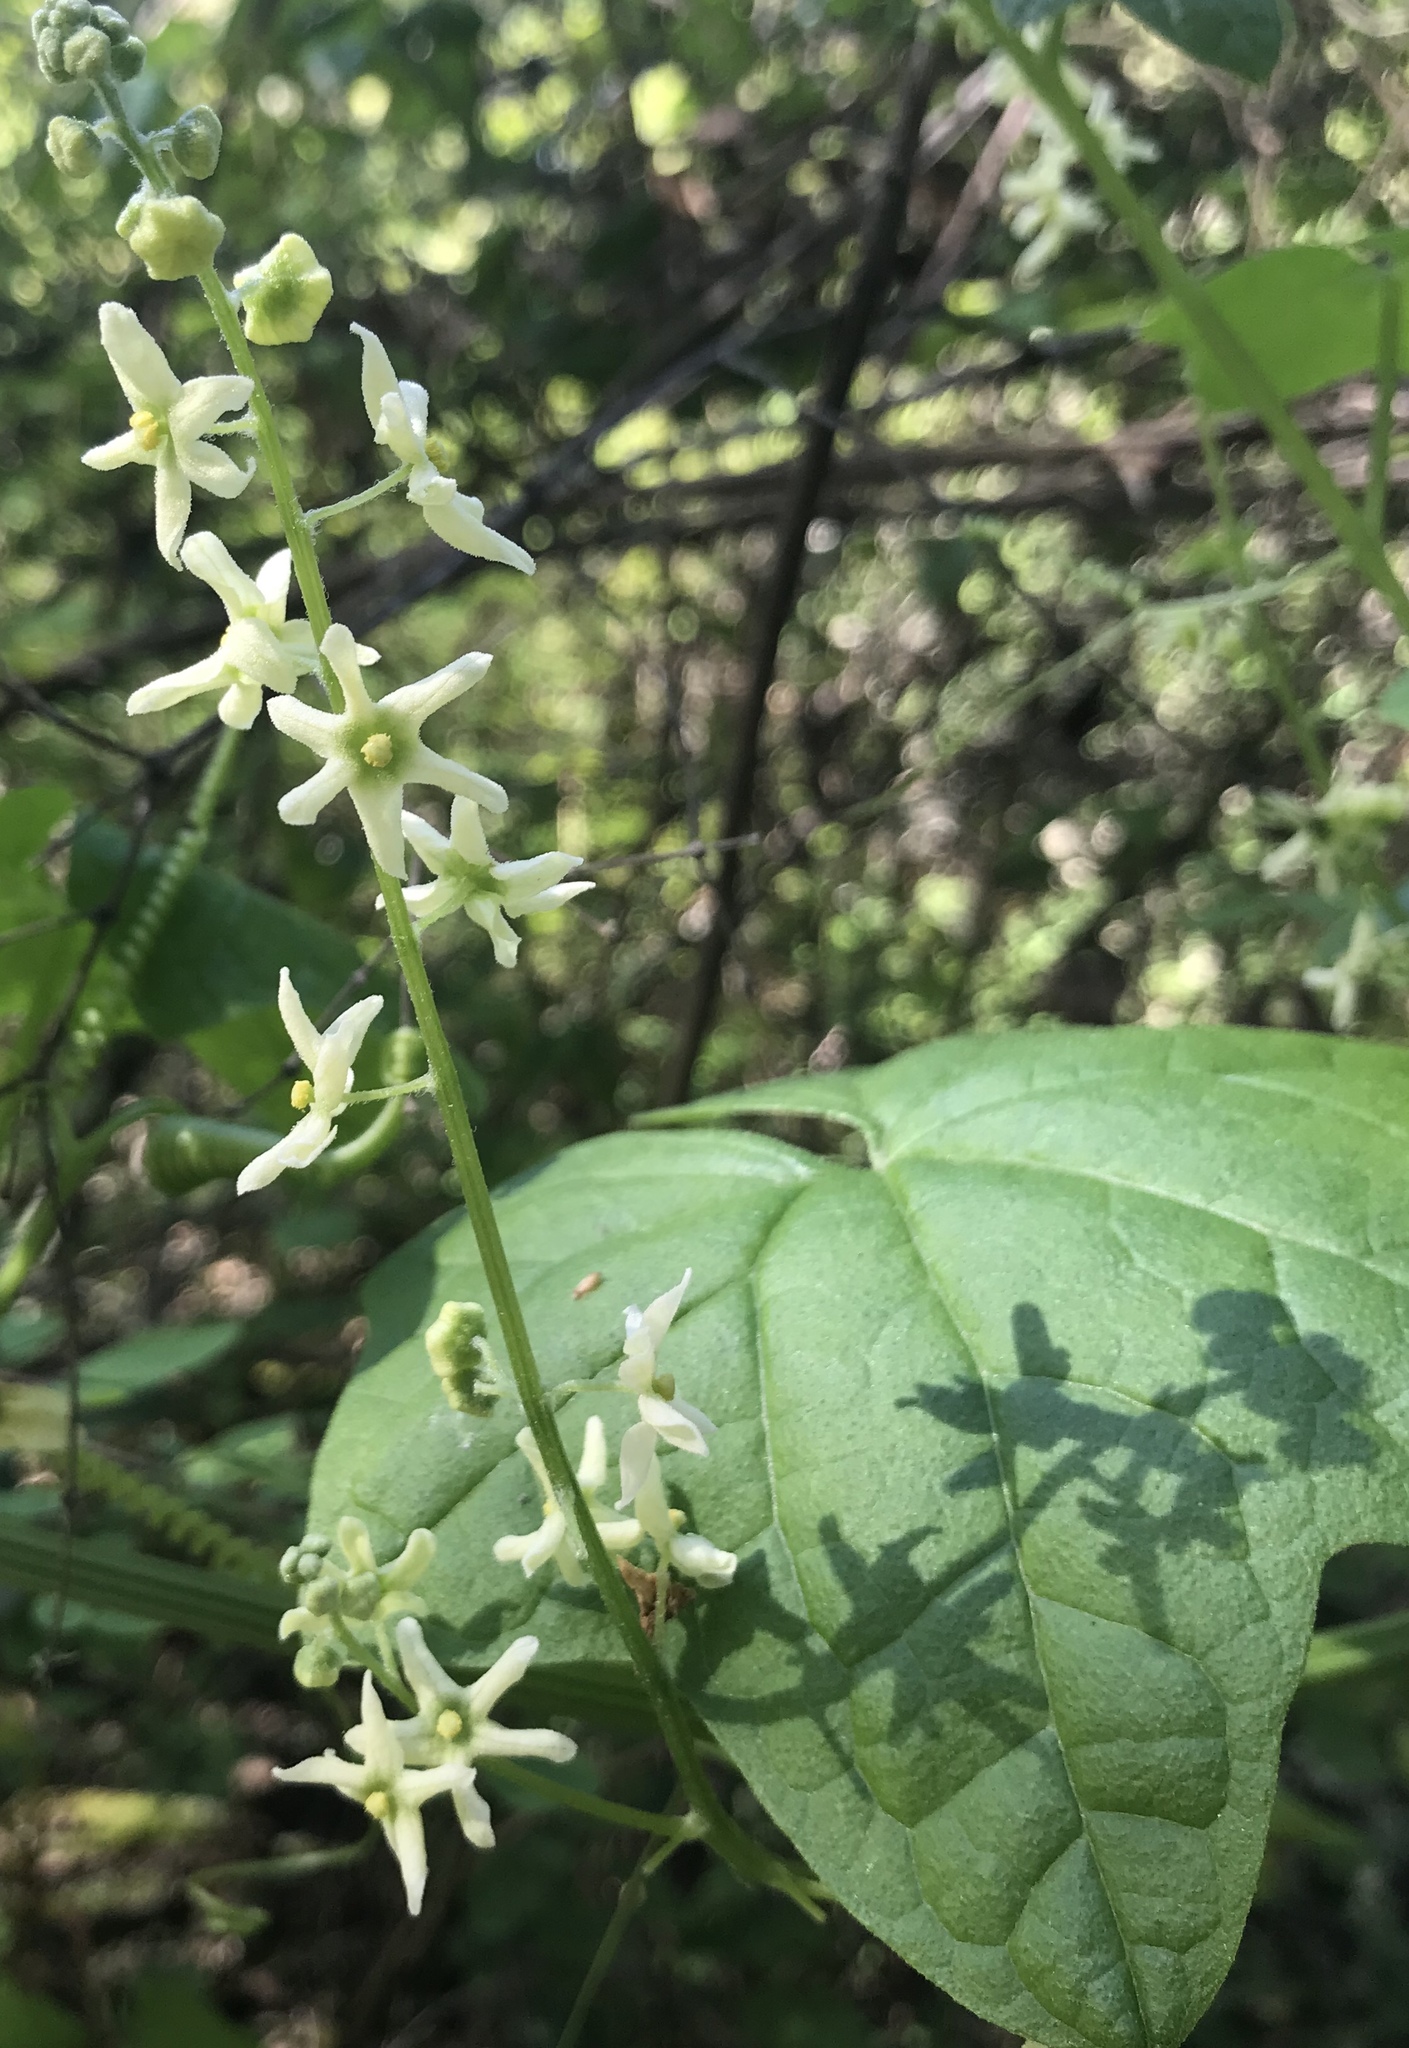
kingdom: Plantae
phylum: Tracheophyta
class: Magnoliopsida
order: Cucurbitales
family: Cucurbitaceae
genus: Marah
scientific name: Marah fabacea
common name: California manroot
